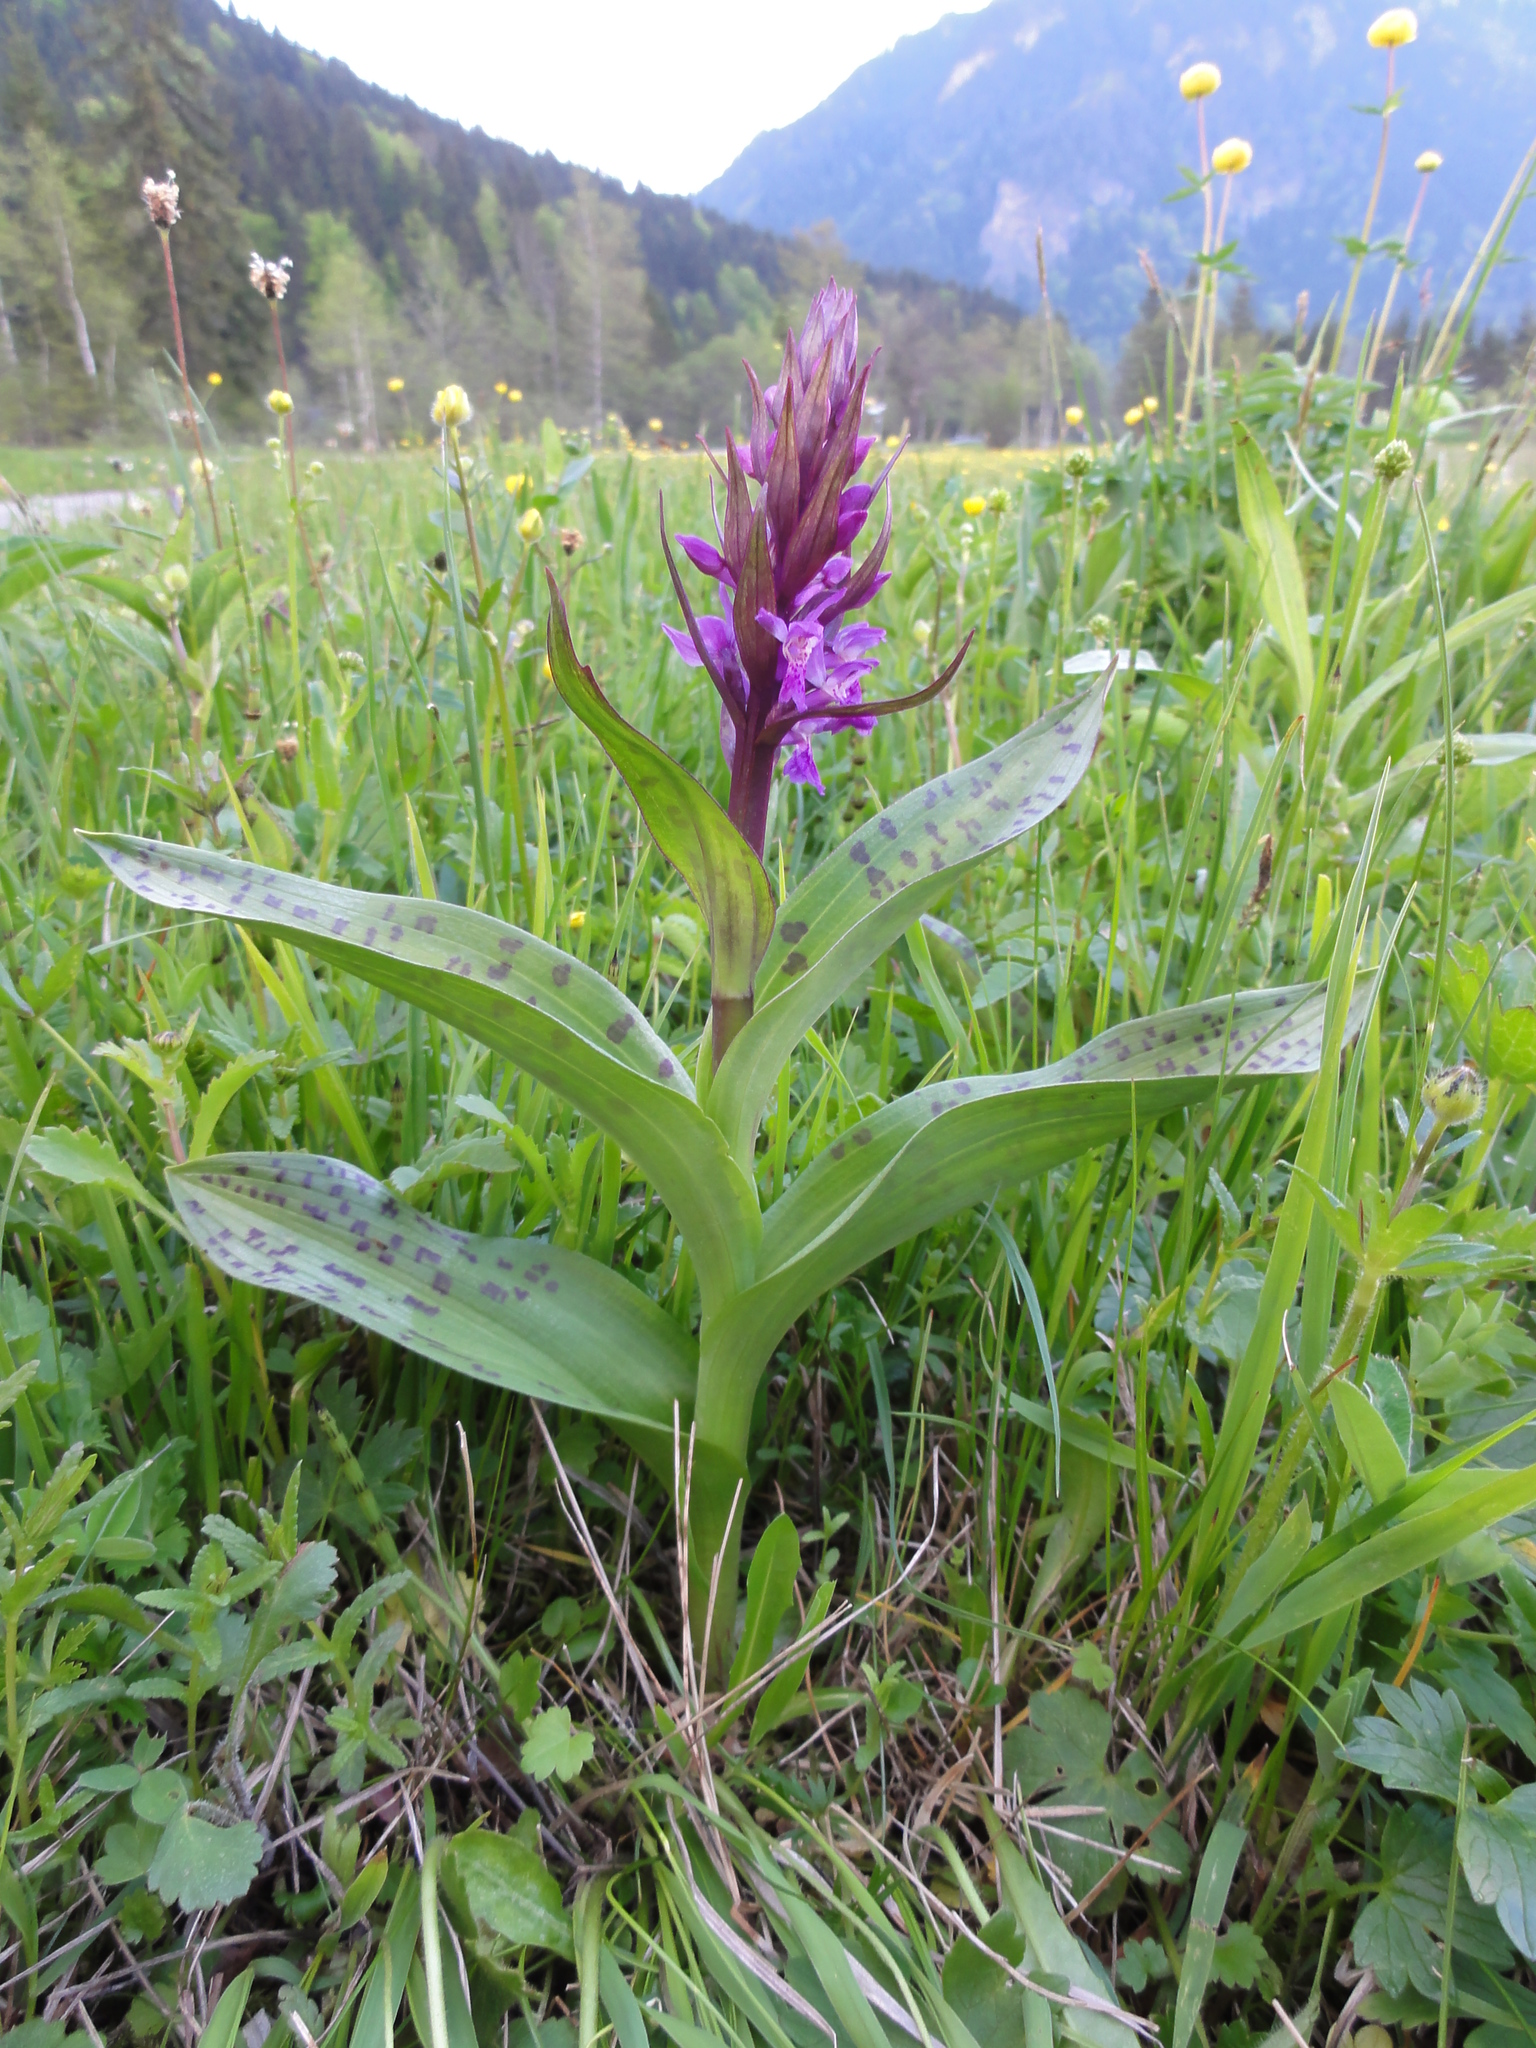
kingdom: Plantae
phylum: Tracheophyta
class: Liliopsida
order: Asparagales
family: Orchidaceae
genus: Dactylorhiza
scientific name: Dactylorhiza majalis
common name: Marsh orchid
